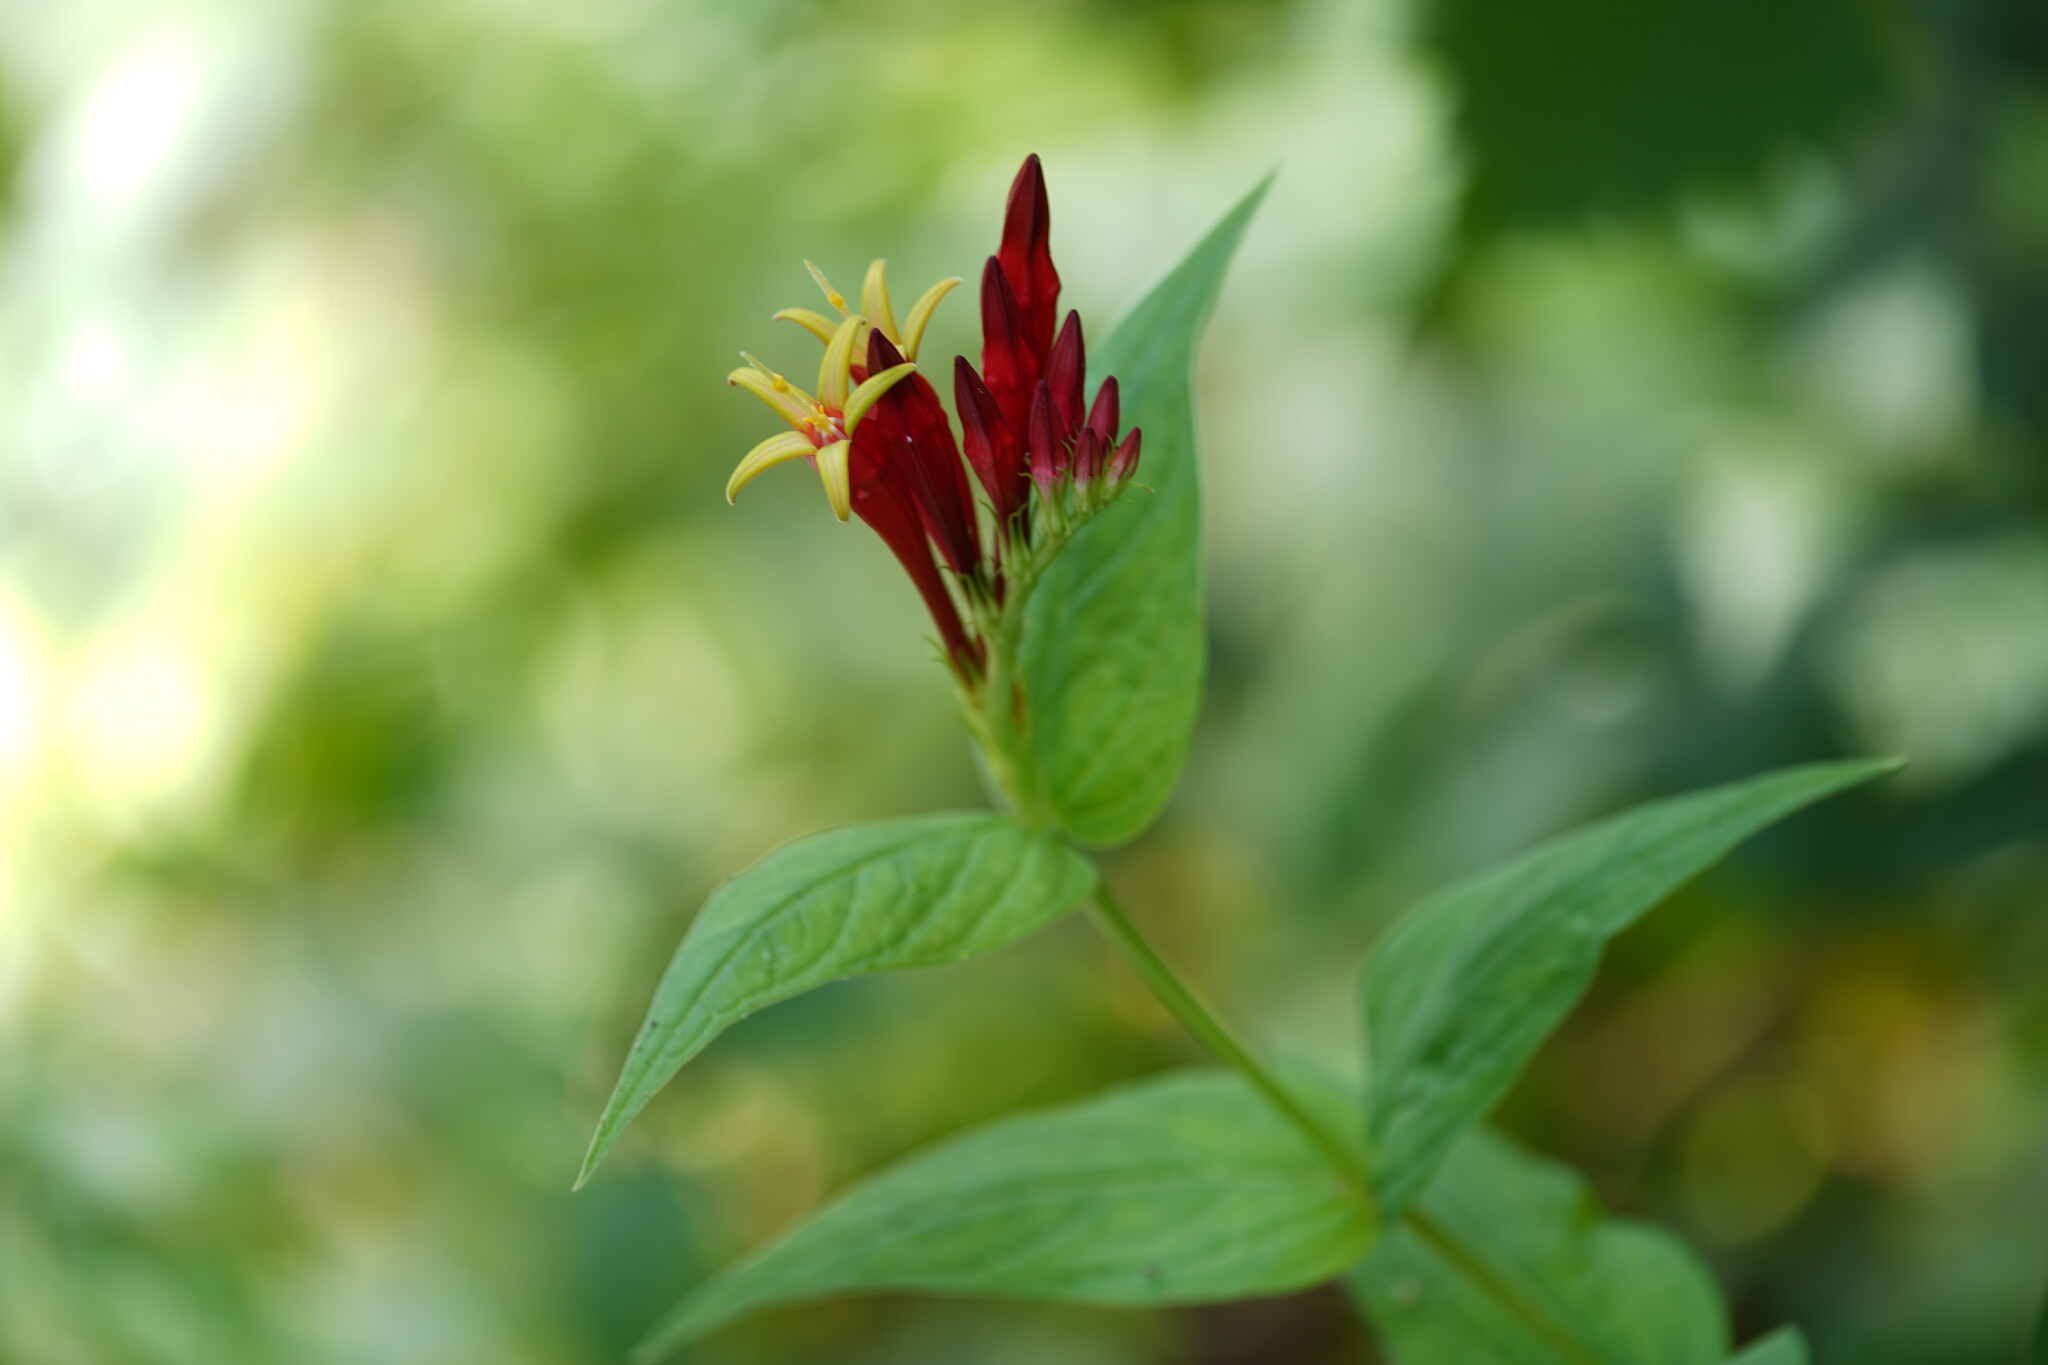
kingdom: Plantae
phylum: Tracheophyta
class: Magnoliopsida
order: Gentianales
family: Loganiaceae
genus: Spigelia
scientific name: Spigelia marilandica
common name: Indian-pink
